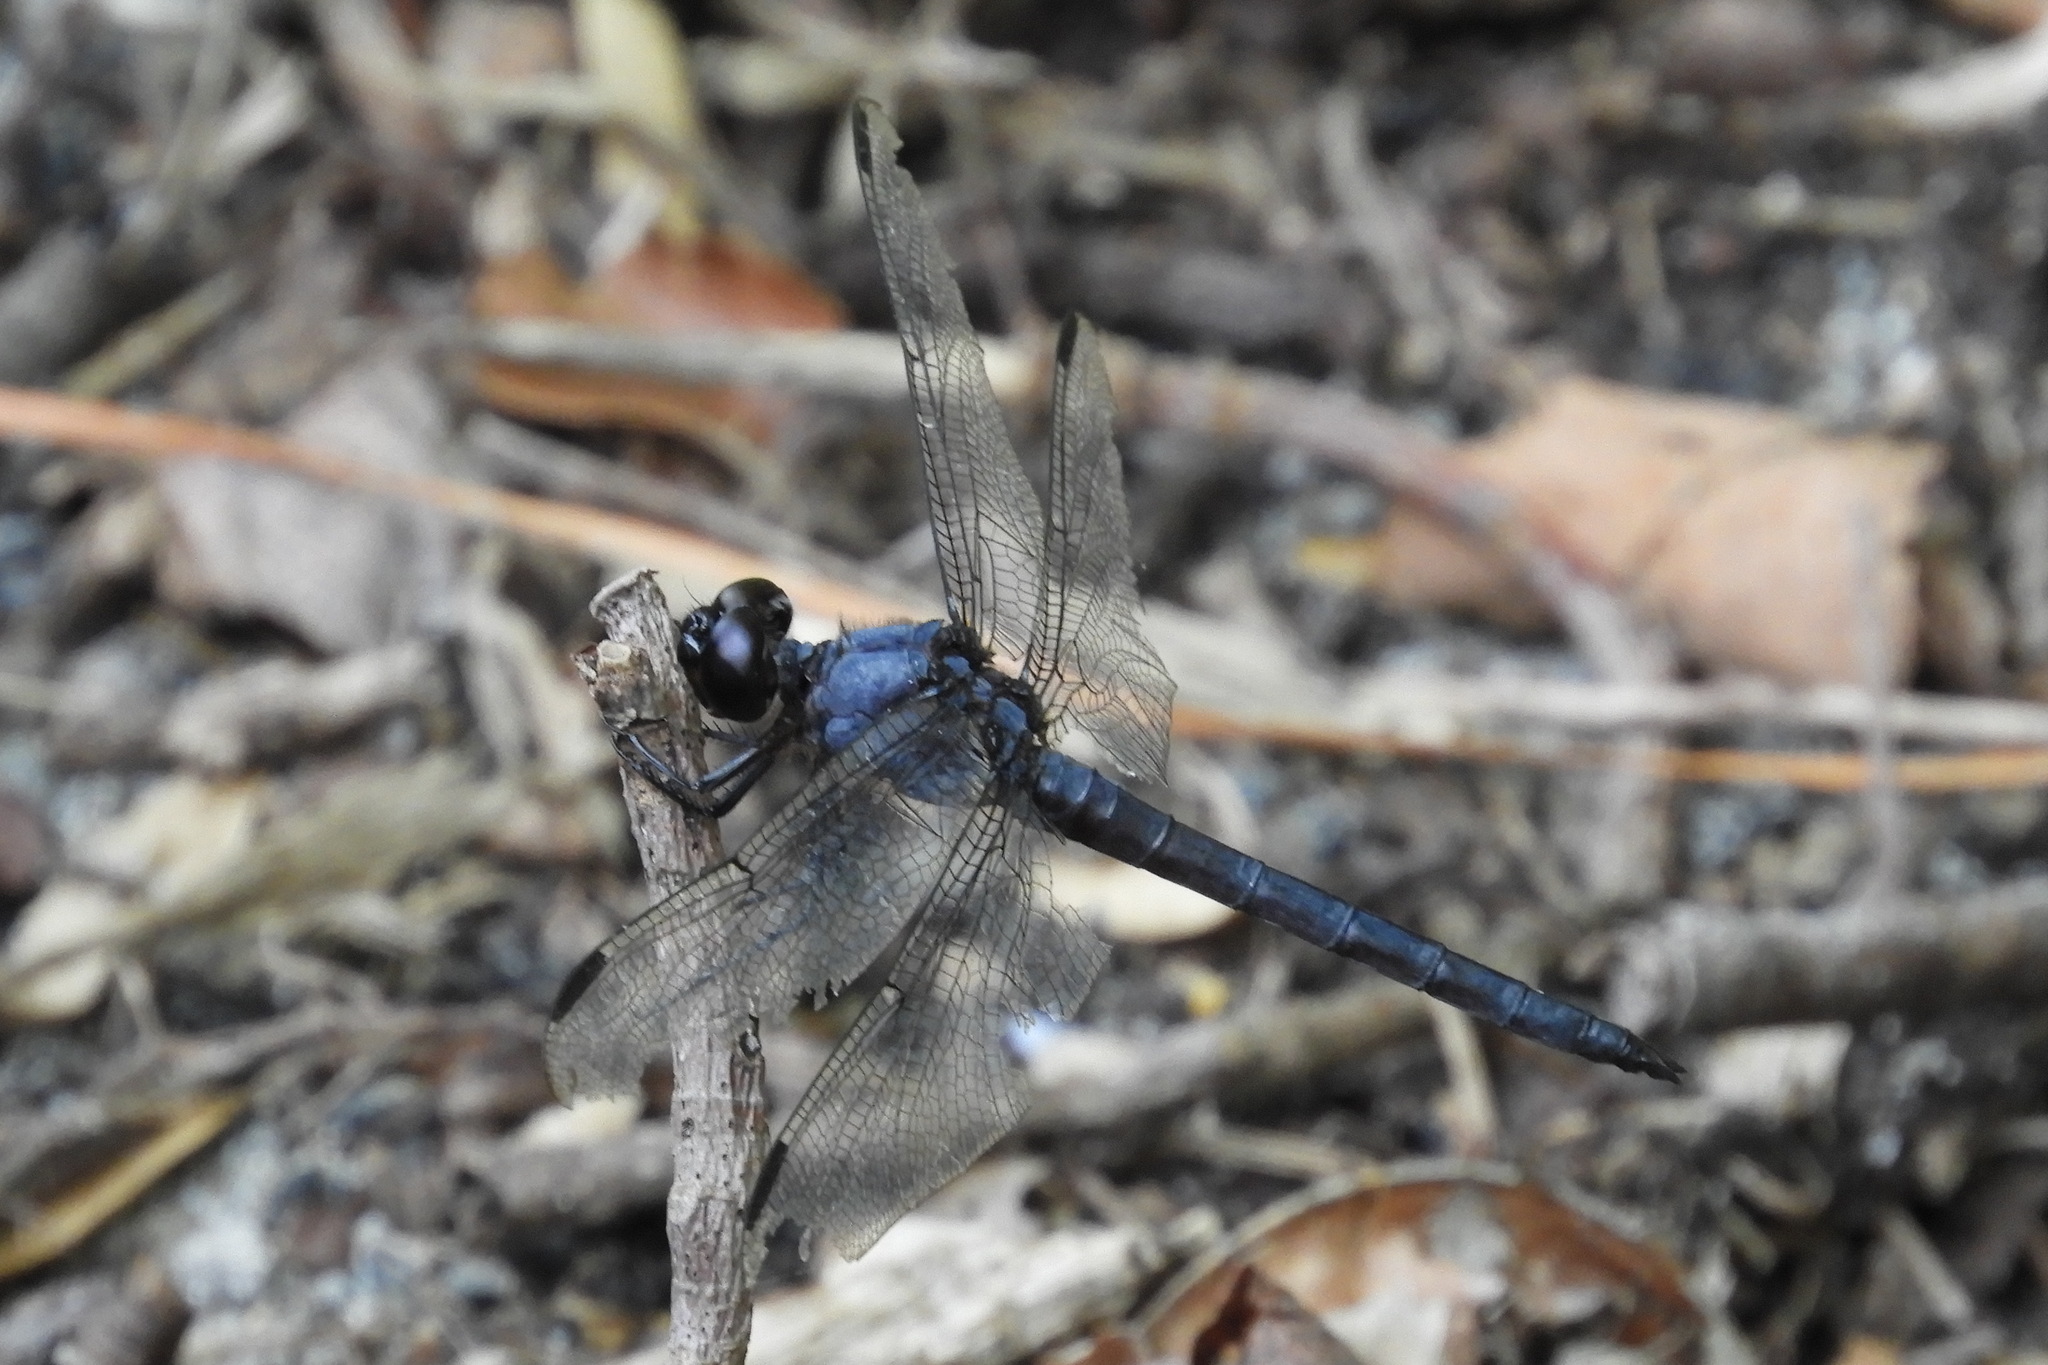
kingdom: Animalia
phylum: Arthropoda
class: Insecta
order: Odonata
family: Libellulidae
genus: Libellula
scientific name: Libellula incesta
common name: Slaty skimmer
